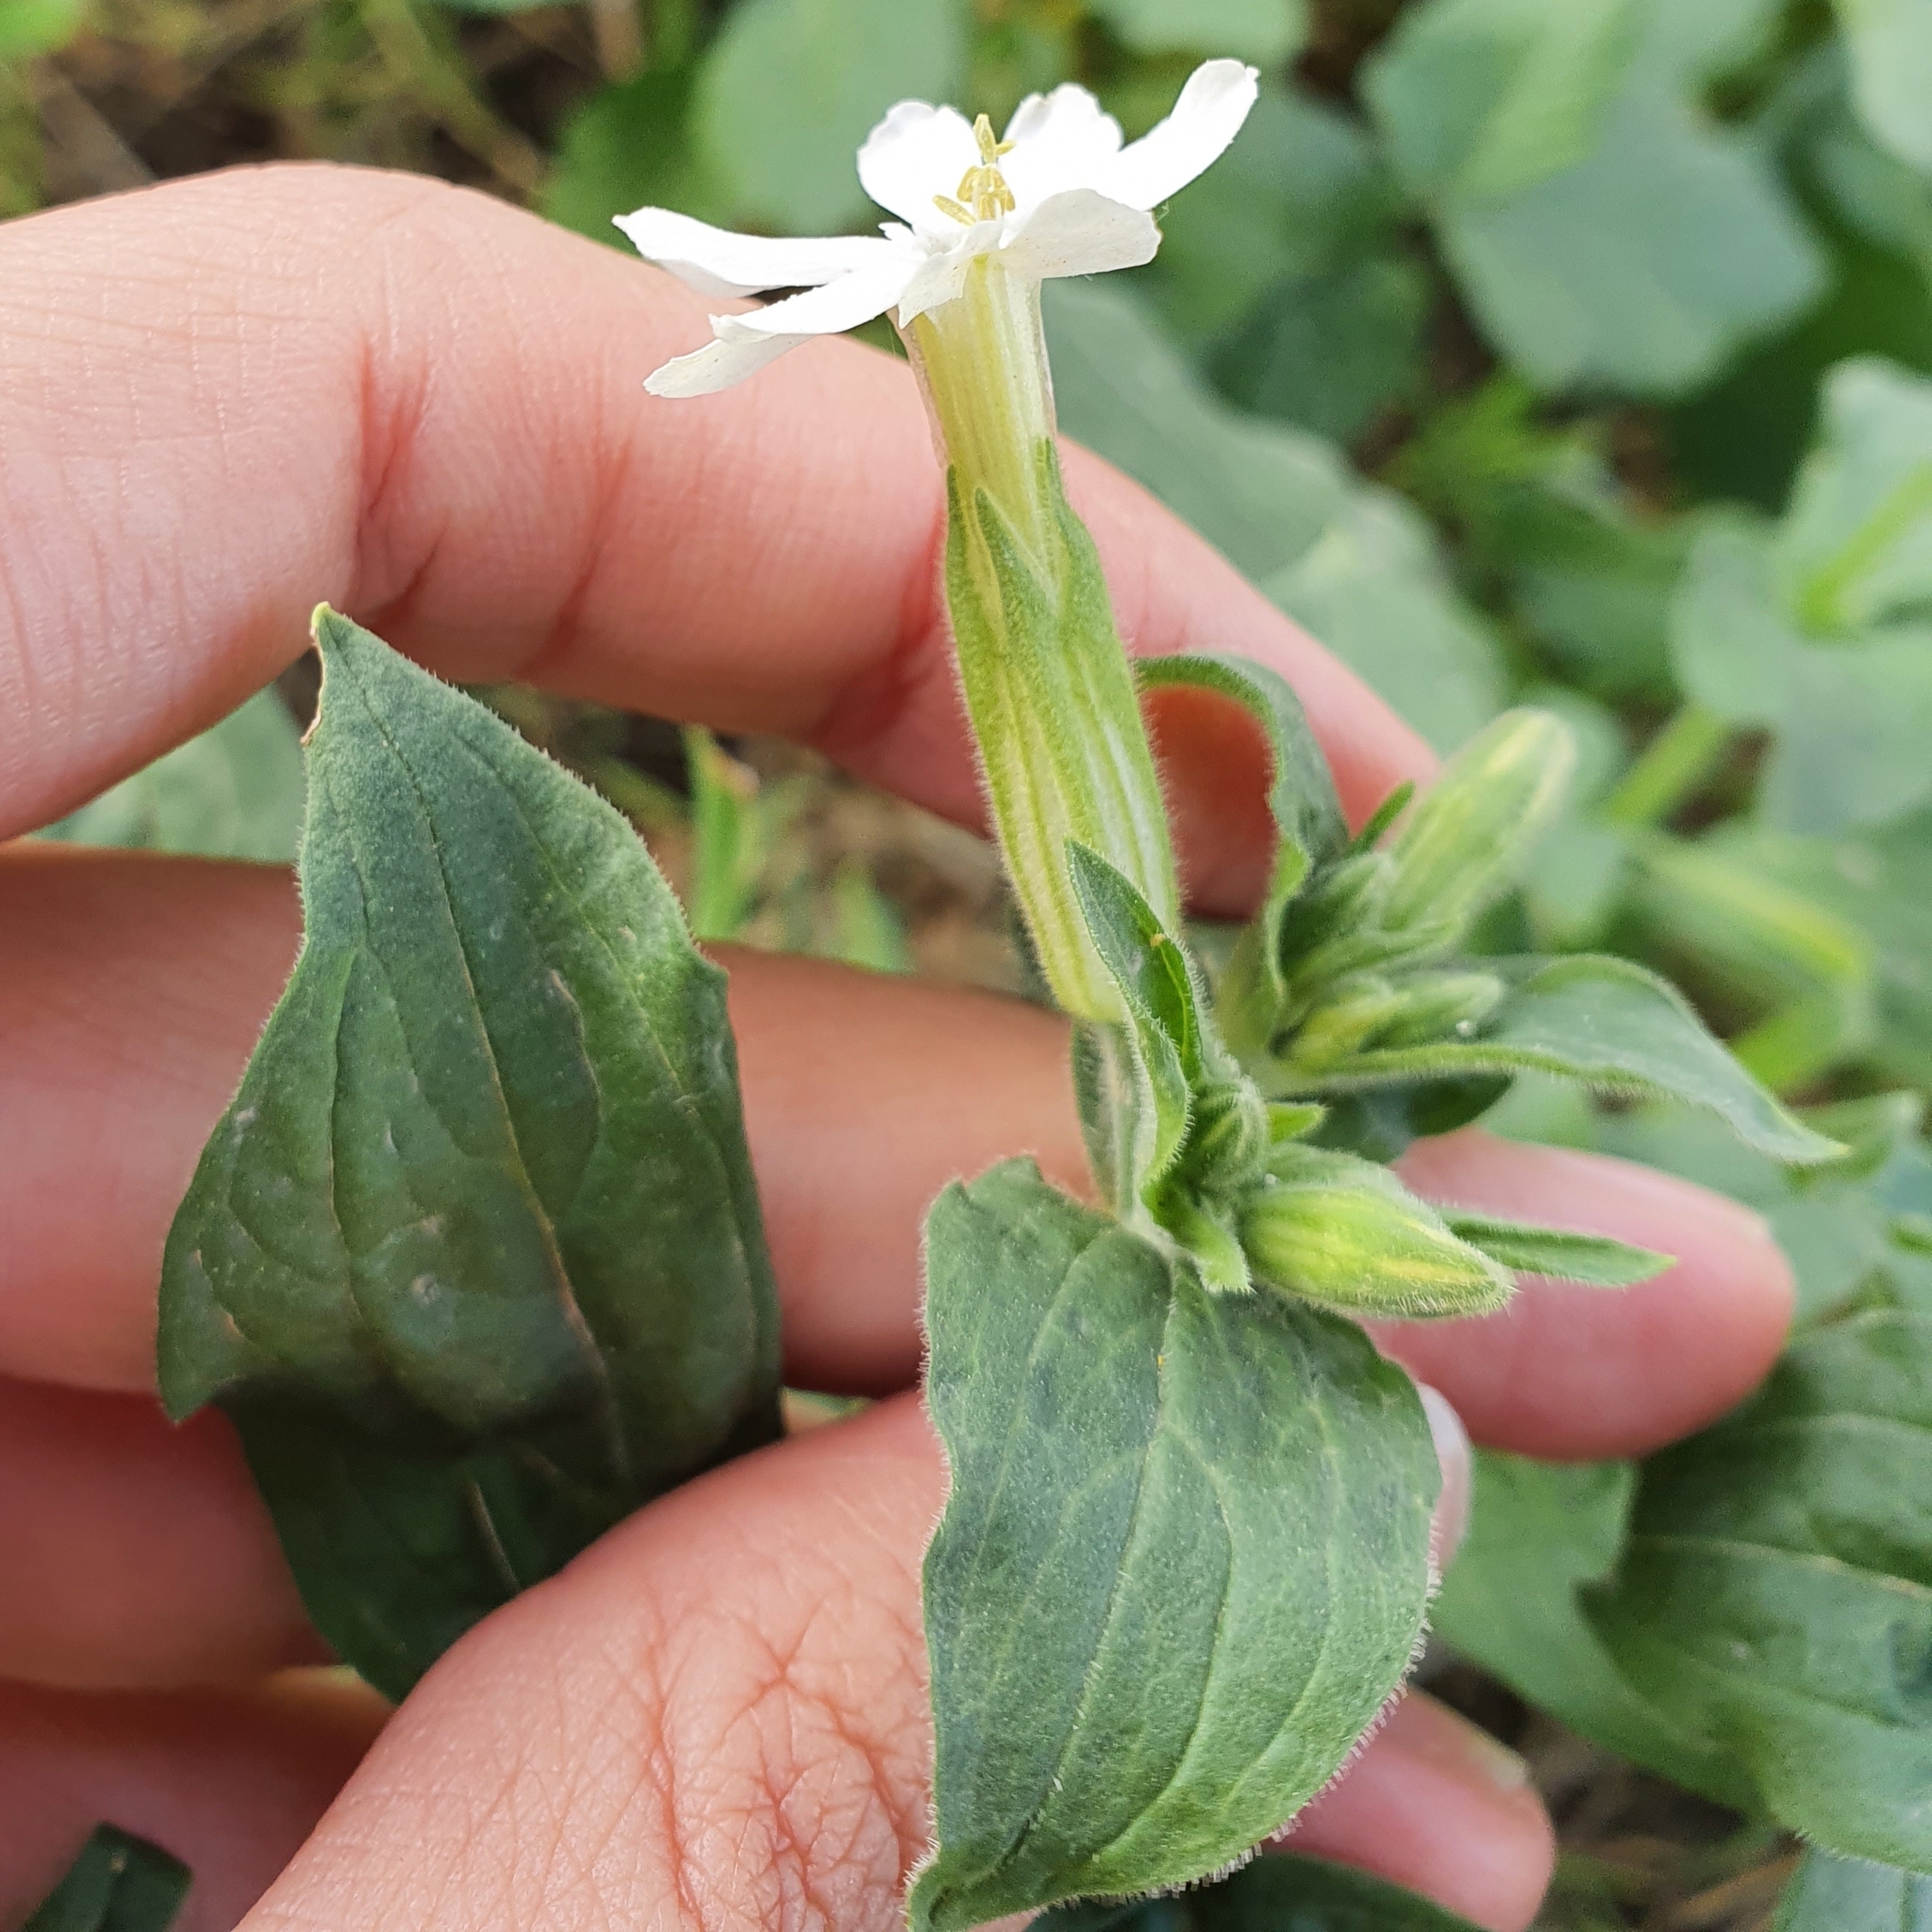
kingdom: Plantae
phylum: Tracheophyta
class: Magnoliopsida
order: Caryophyllales
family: Caryophyllaceae
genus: Silene
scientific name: Silene latifolia
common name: White campion
